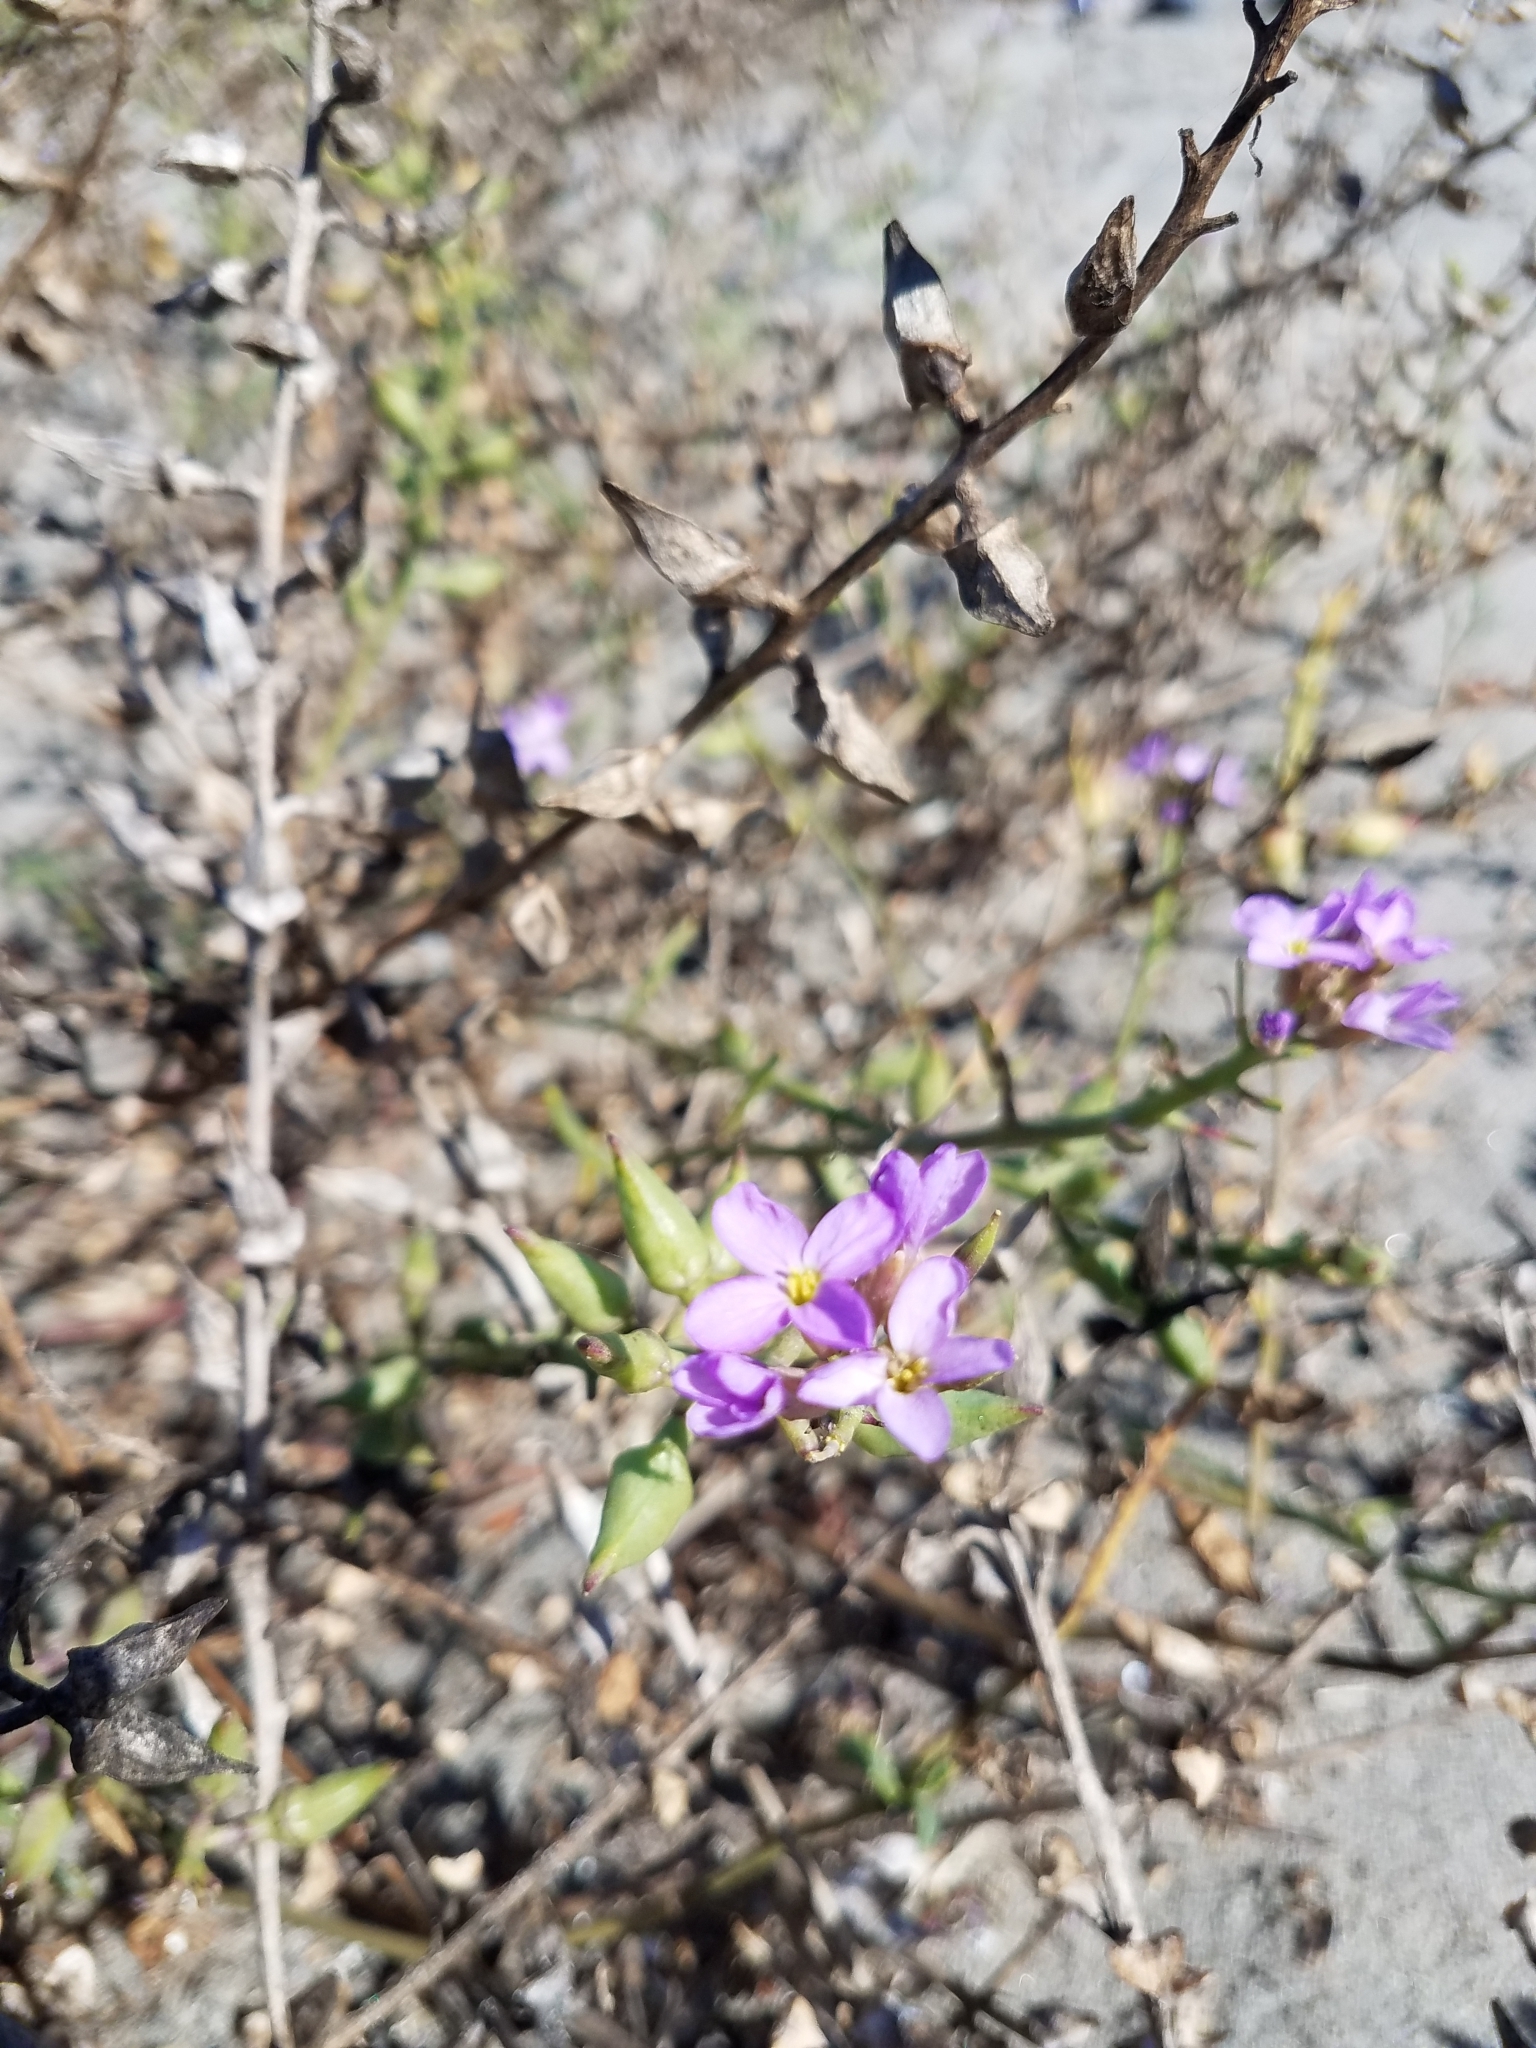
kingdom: Plantae
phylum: Tracheophyta
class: Magnoliopsida
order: Brassicales
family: Brassicaceae
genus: Cakile
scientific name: Cakile maritima
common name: Sea rocket
